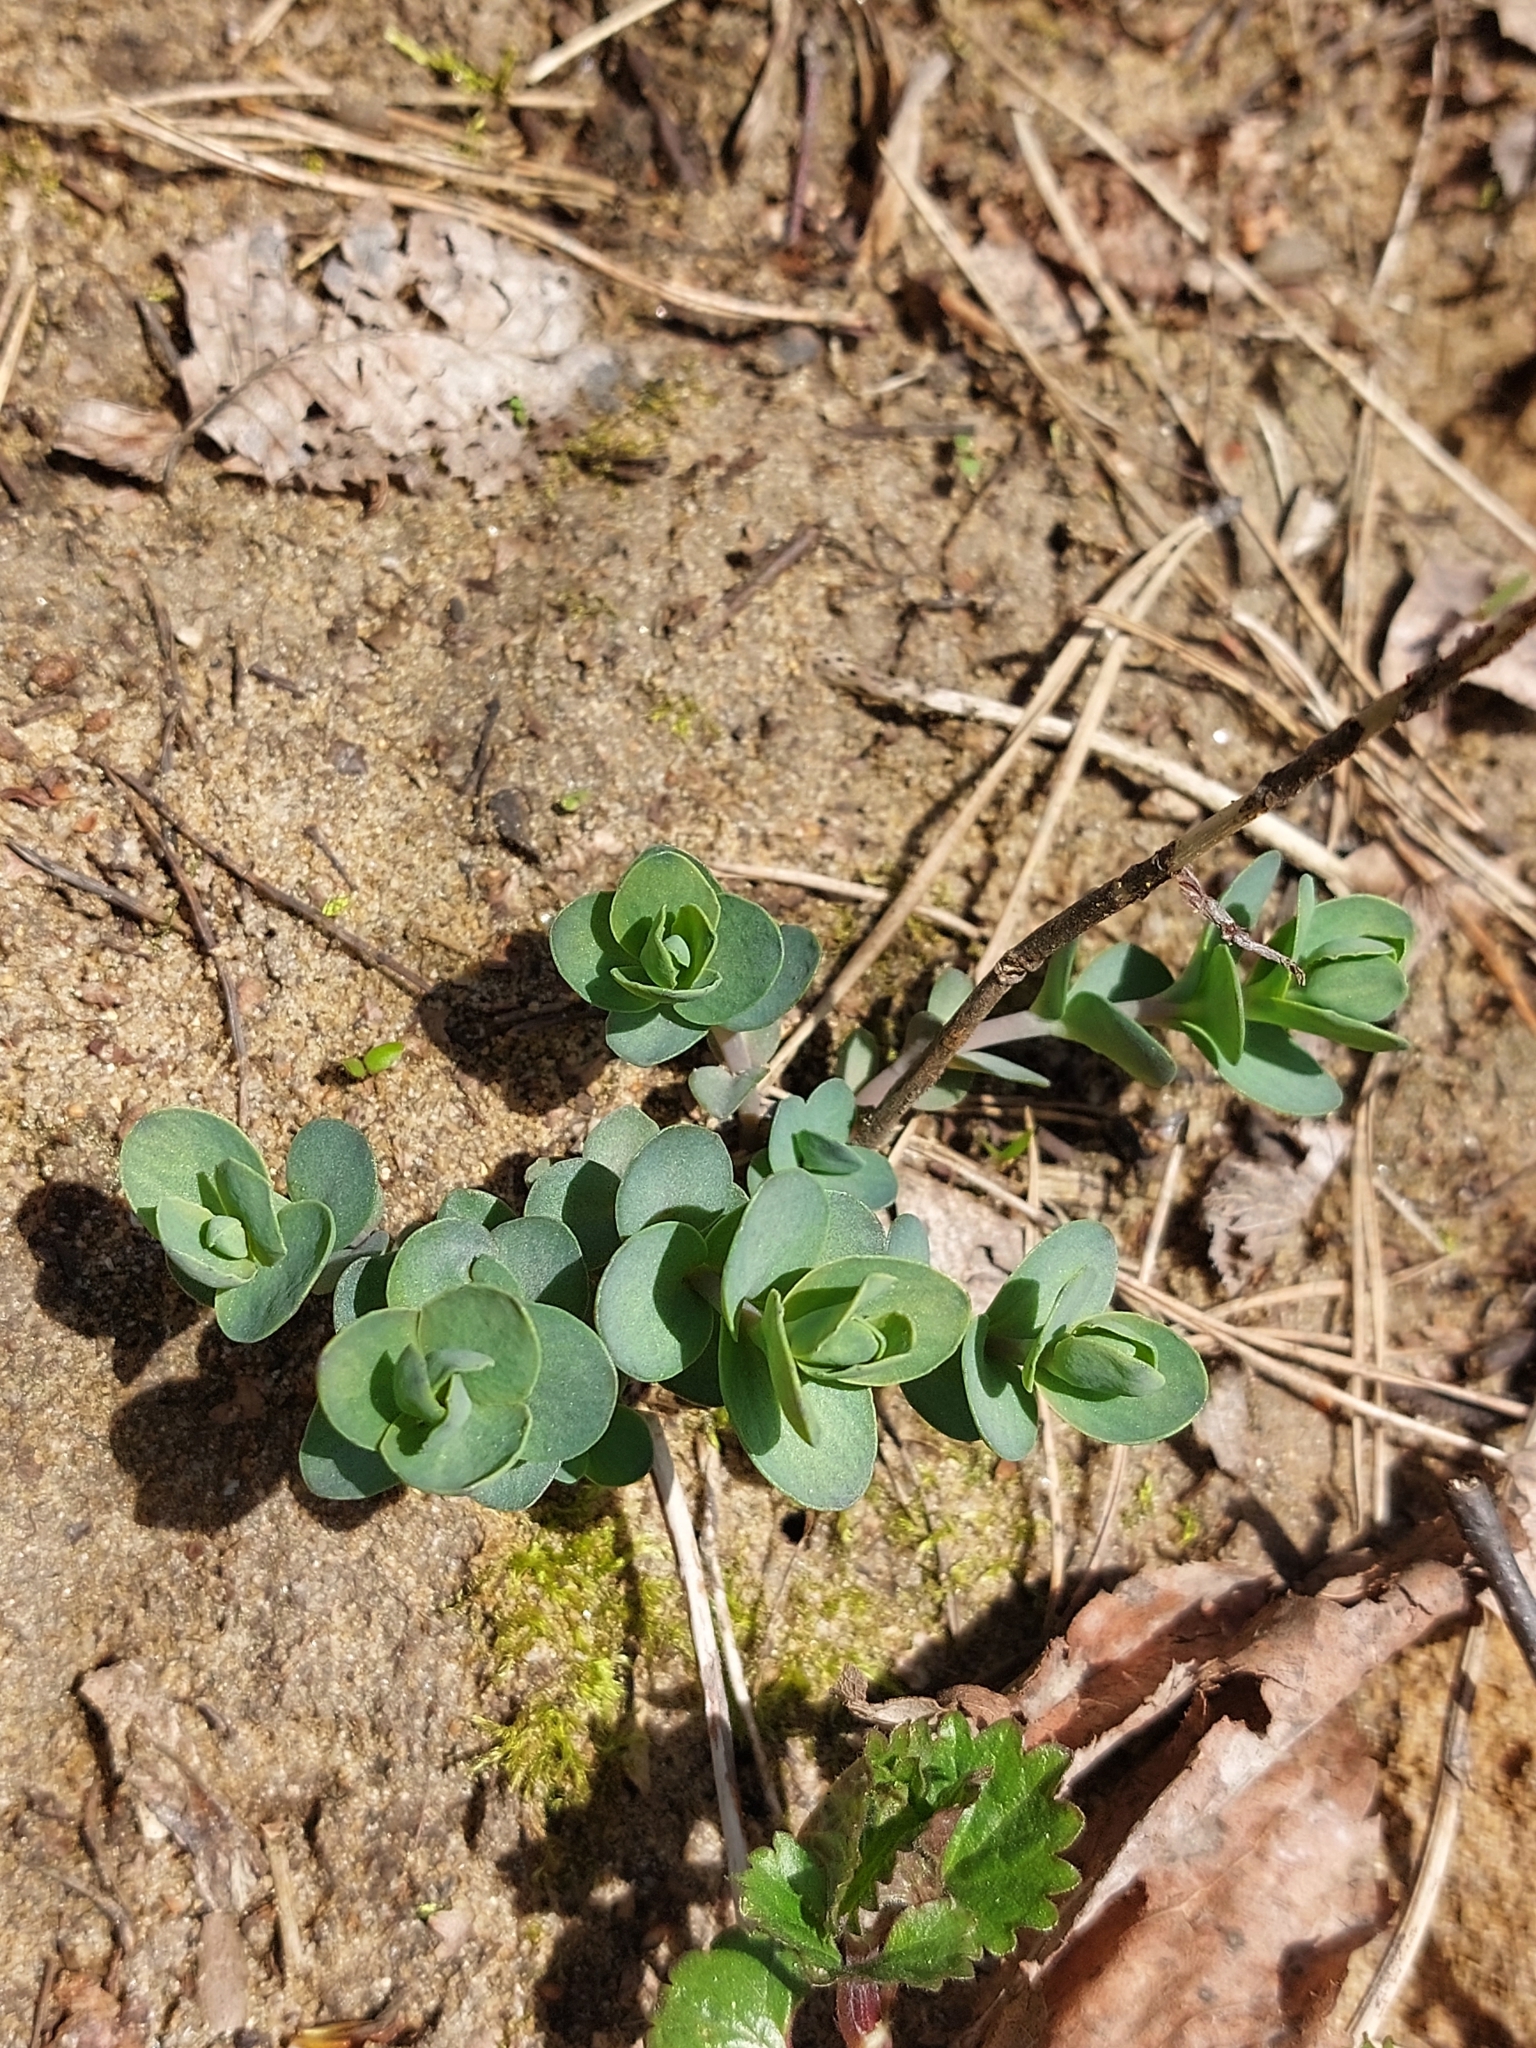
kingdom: Plantae
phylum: Tracheophyta
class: Magnoliopsida
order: Saxifragales
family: Crassulaceae
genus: Hylotelephium
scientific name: Hylotelephium telephium
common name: Live-forever
